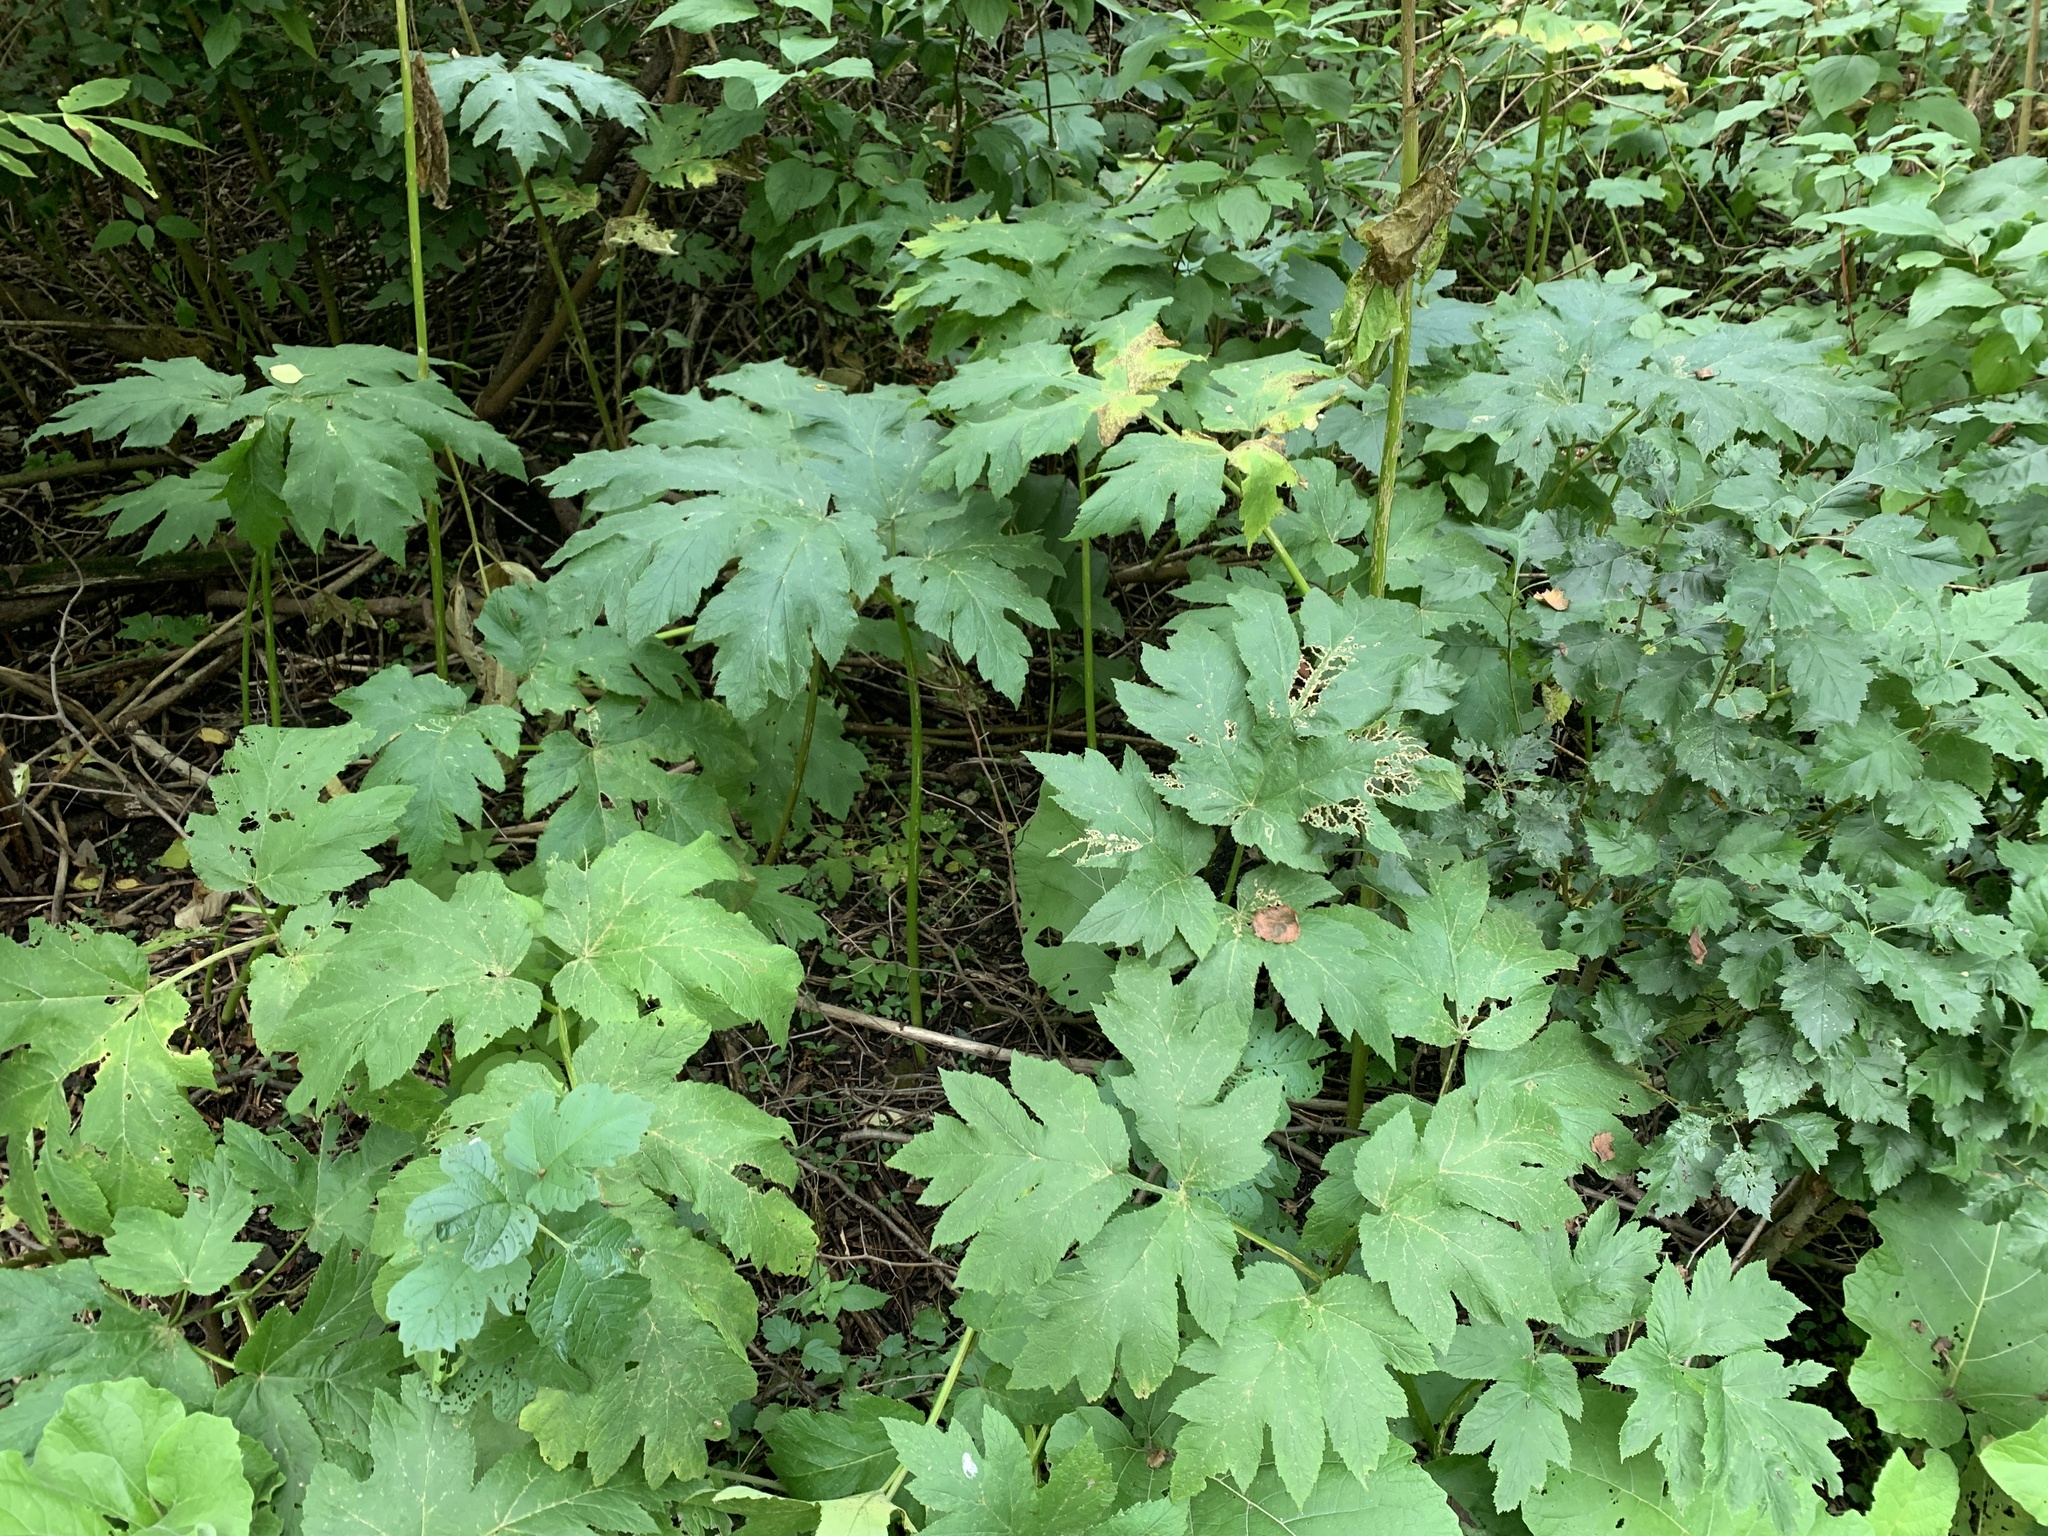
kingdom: Plantae
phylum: Tracheophyta
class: Magnoliopsida
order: Apiales
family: Apiaceae
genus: Heracleum
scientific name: Heracleum maximum
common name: American cow parsnip
